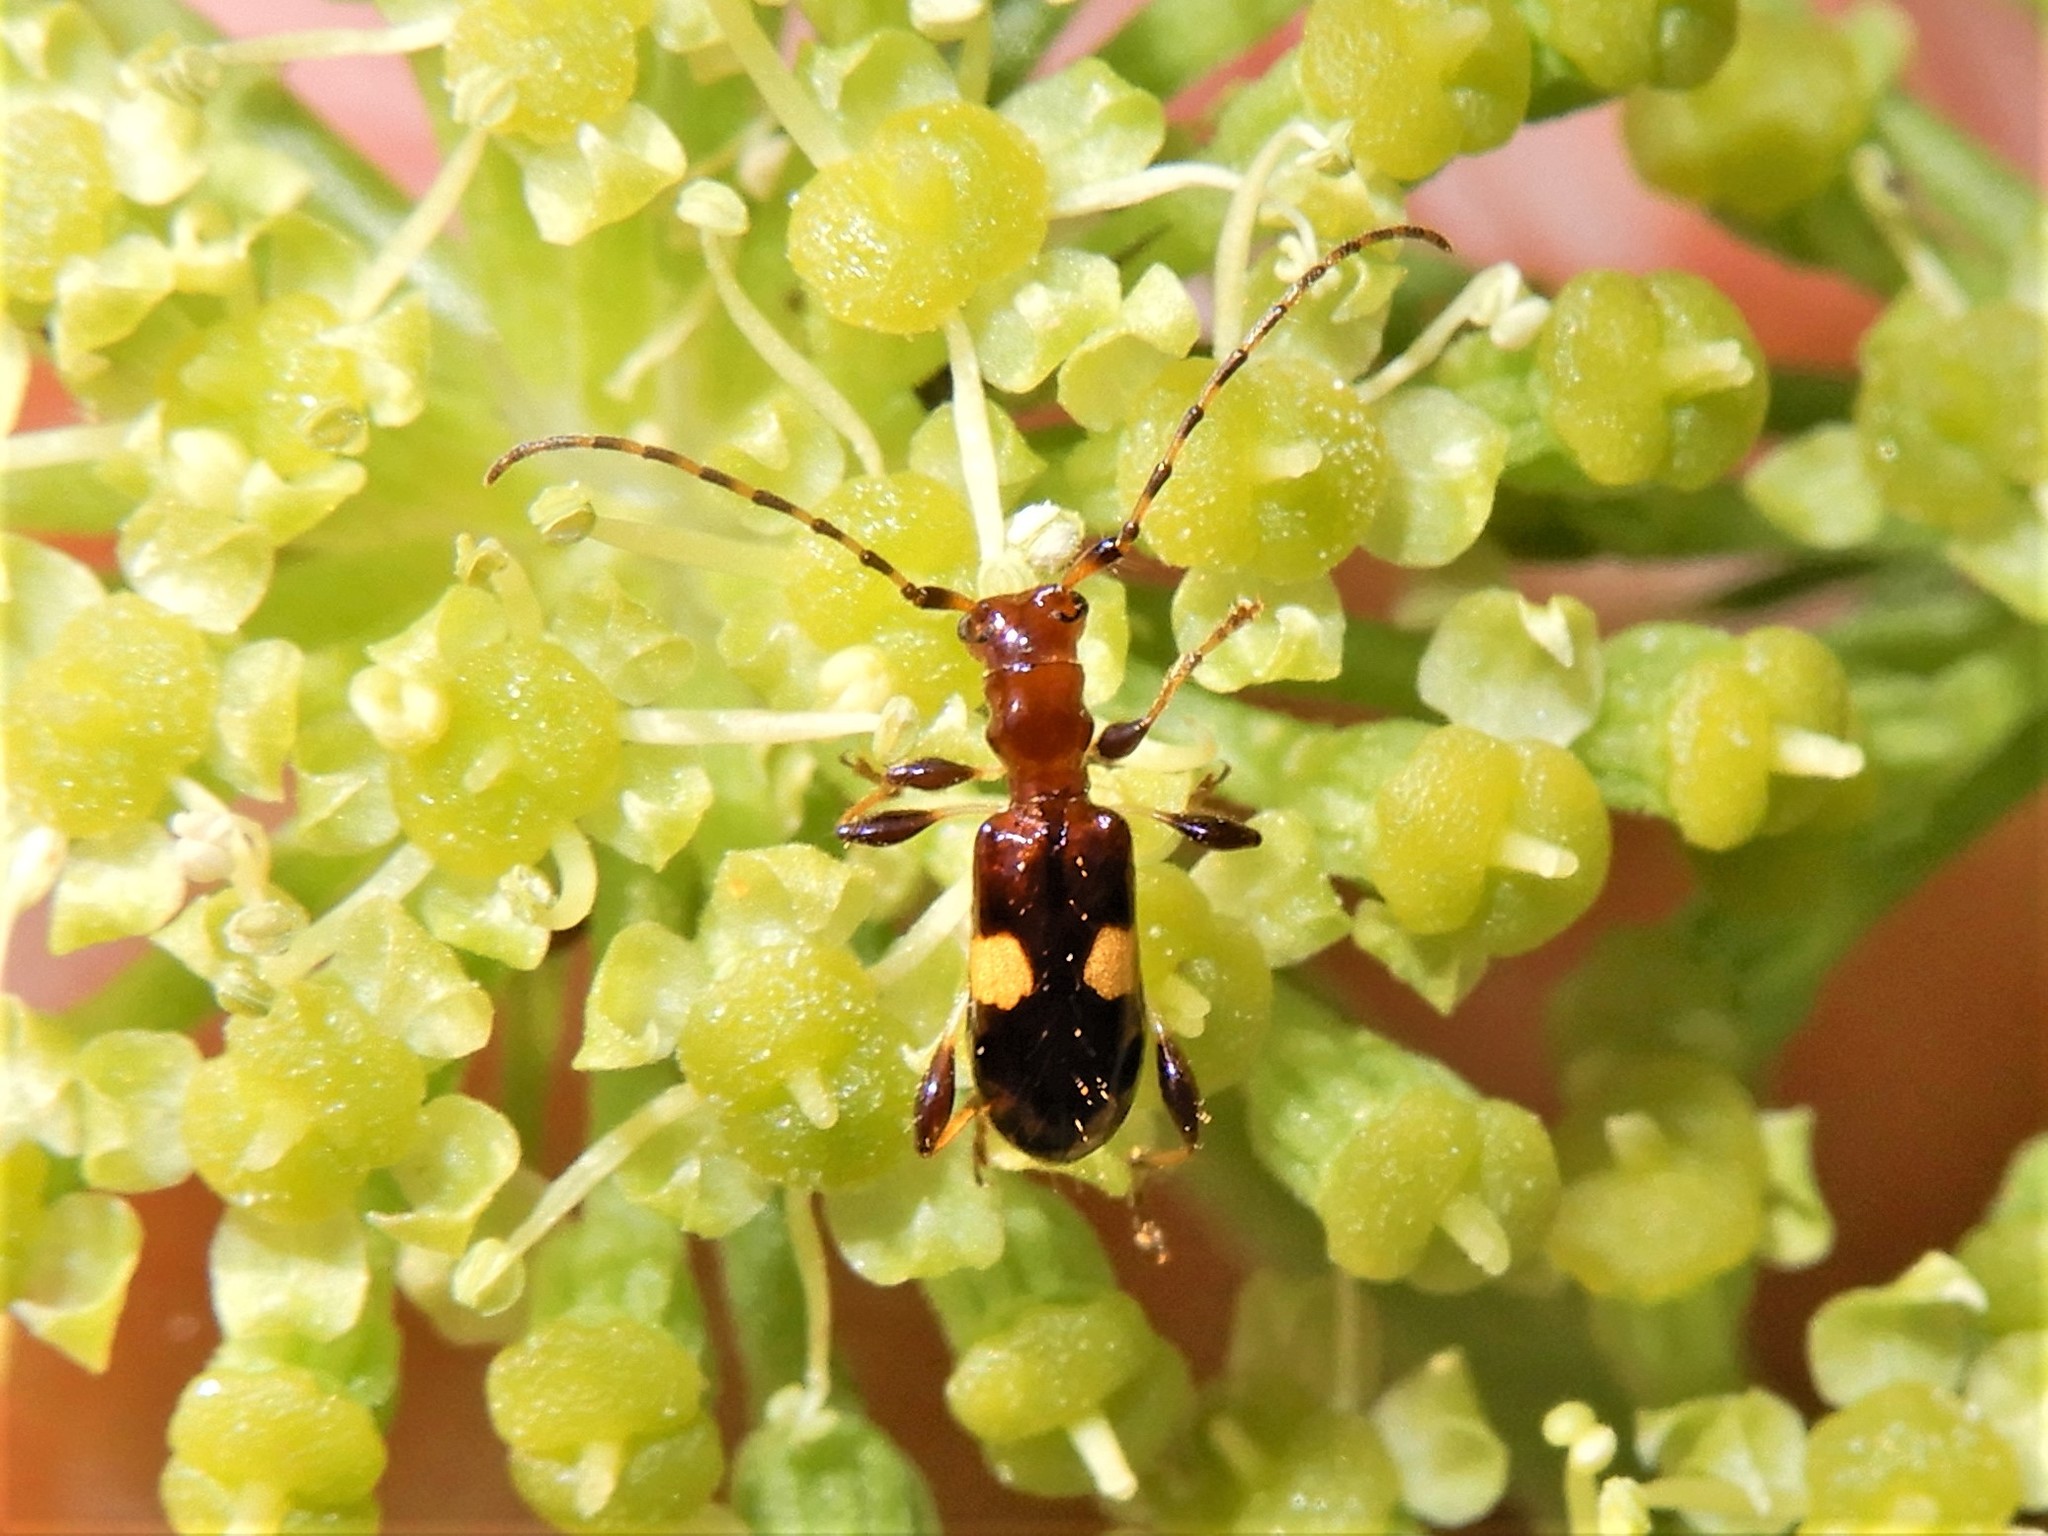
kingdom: Animalia
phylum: Arthropoda
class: Insecta
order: Coleoptera
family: Cerambycidae
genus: Zorion
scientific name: Zorion guttigerum
